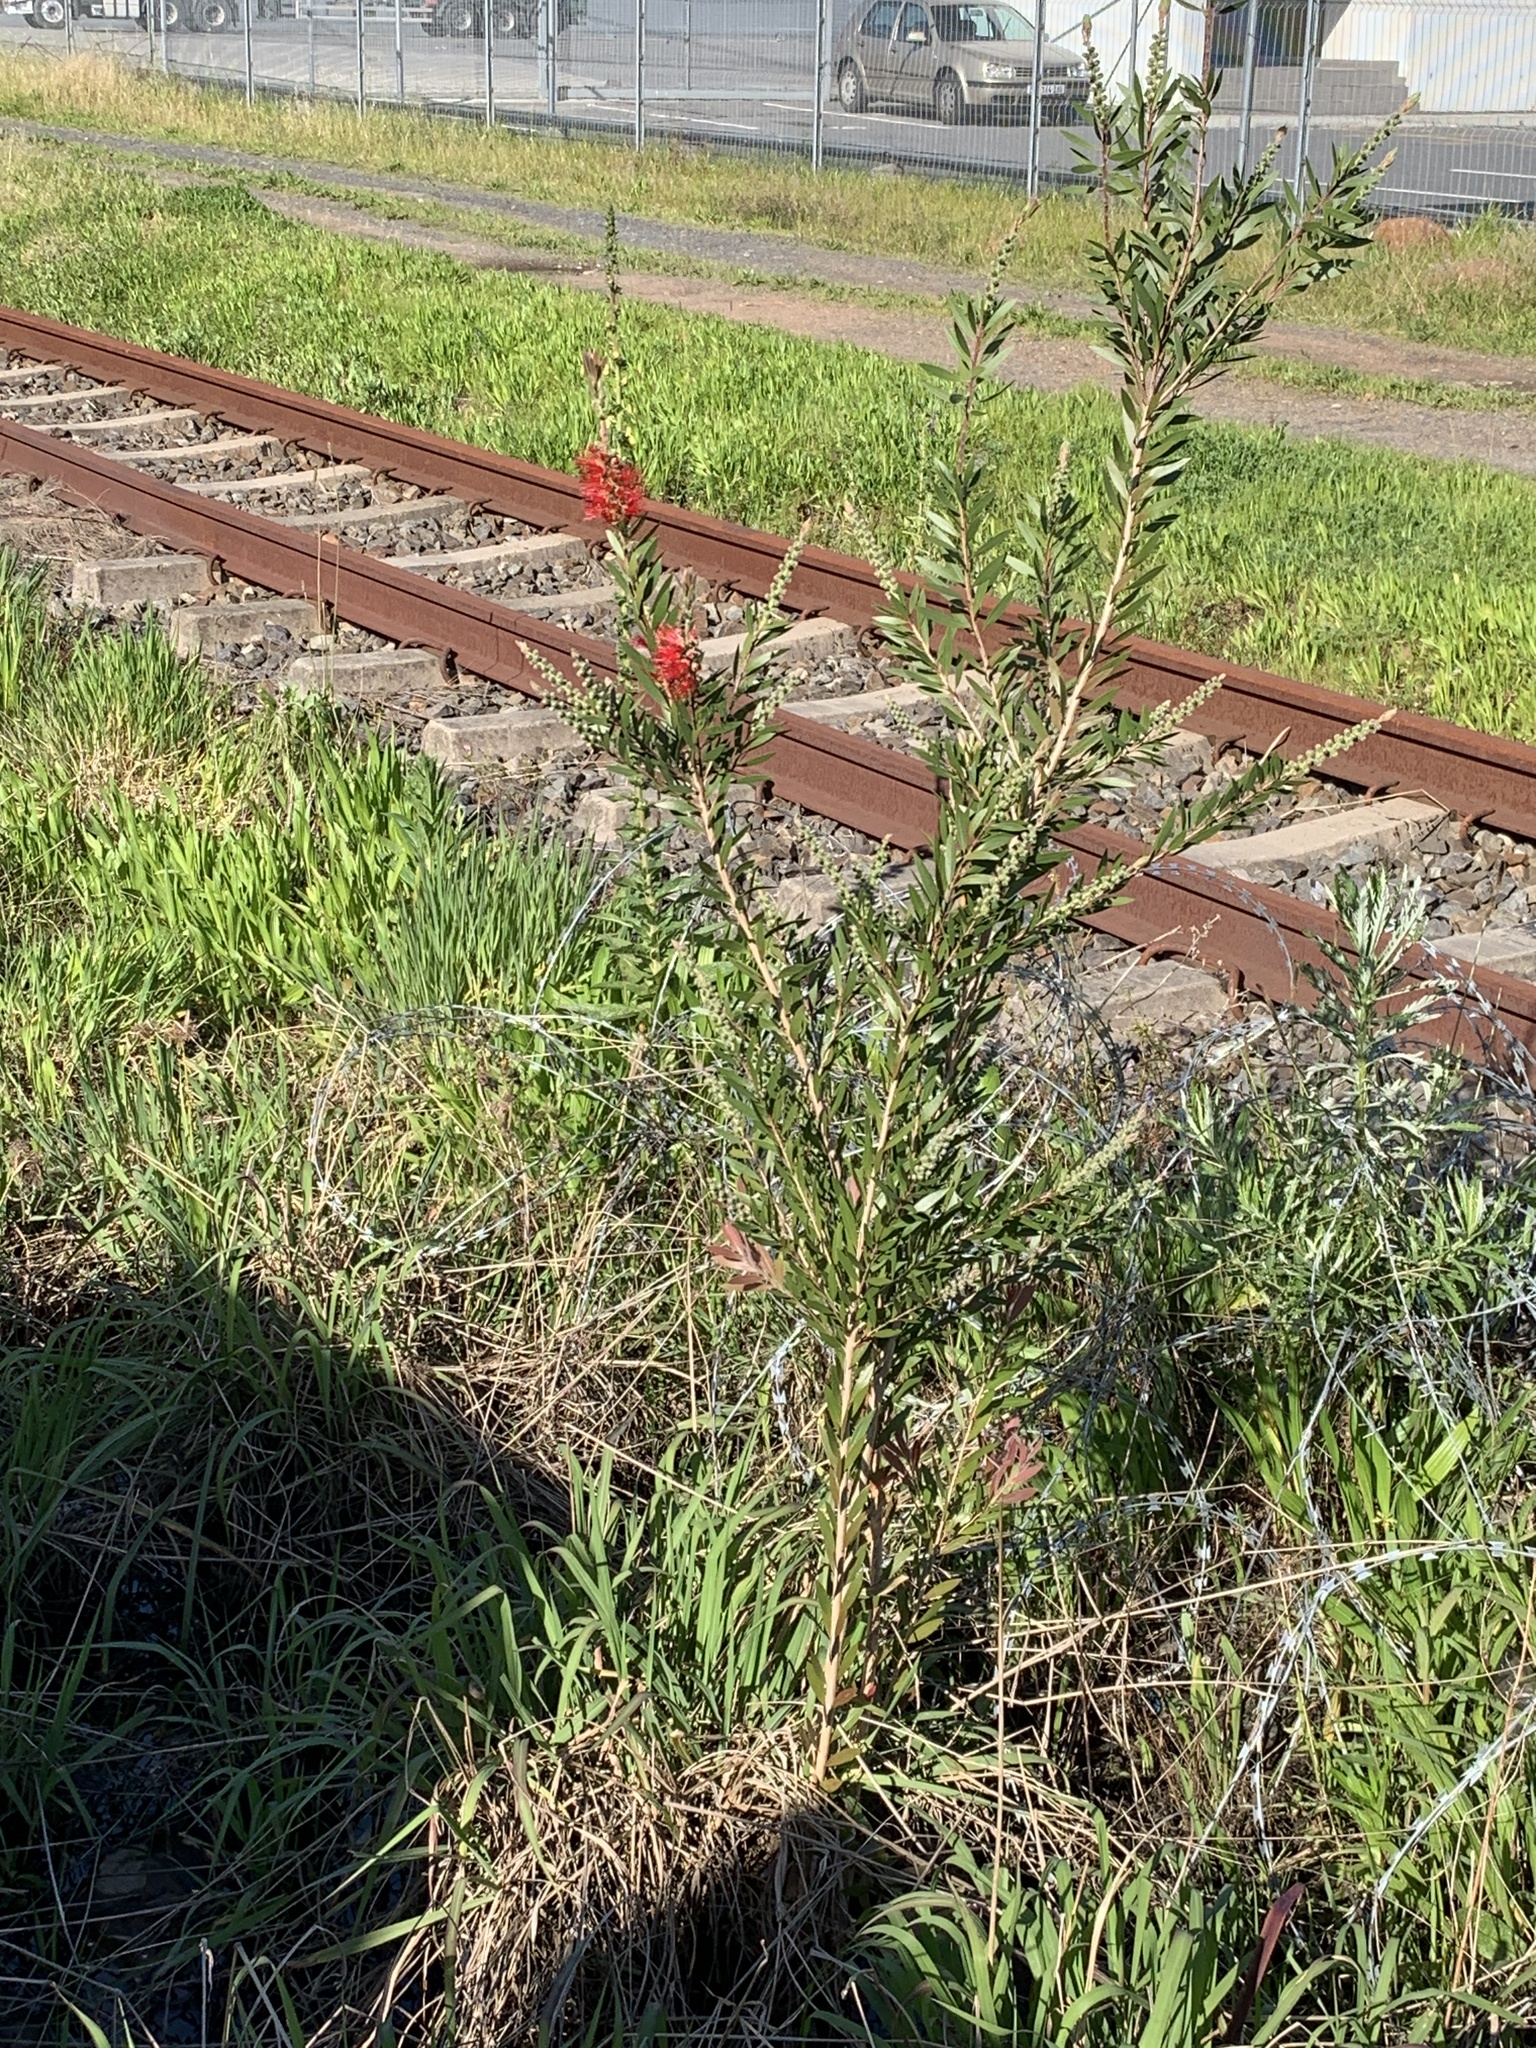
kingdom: Plantae
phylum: Tracheophyta
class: Magnoliopsida
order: Myrtales
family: Myrtaceae
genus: Callistemon
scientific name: Callistemon viminalis
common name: Drooping bottlebrush
